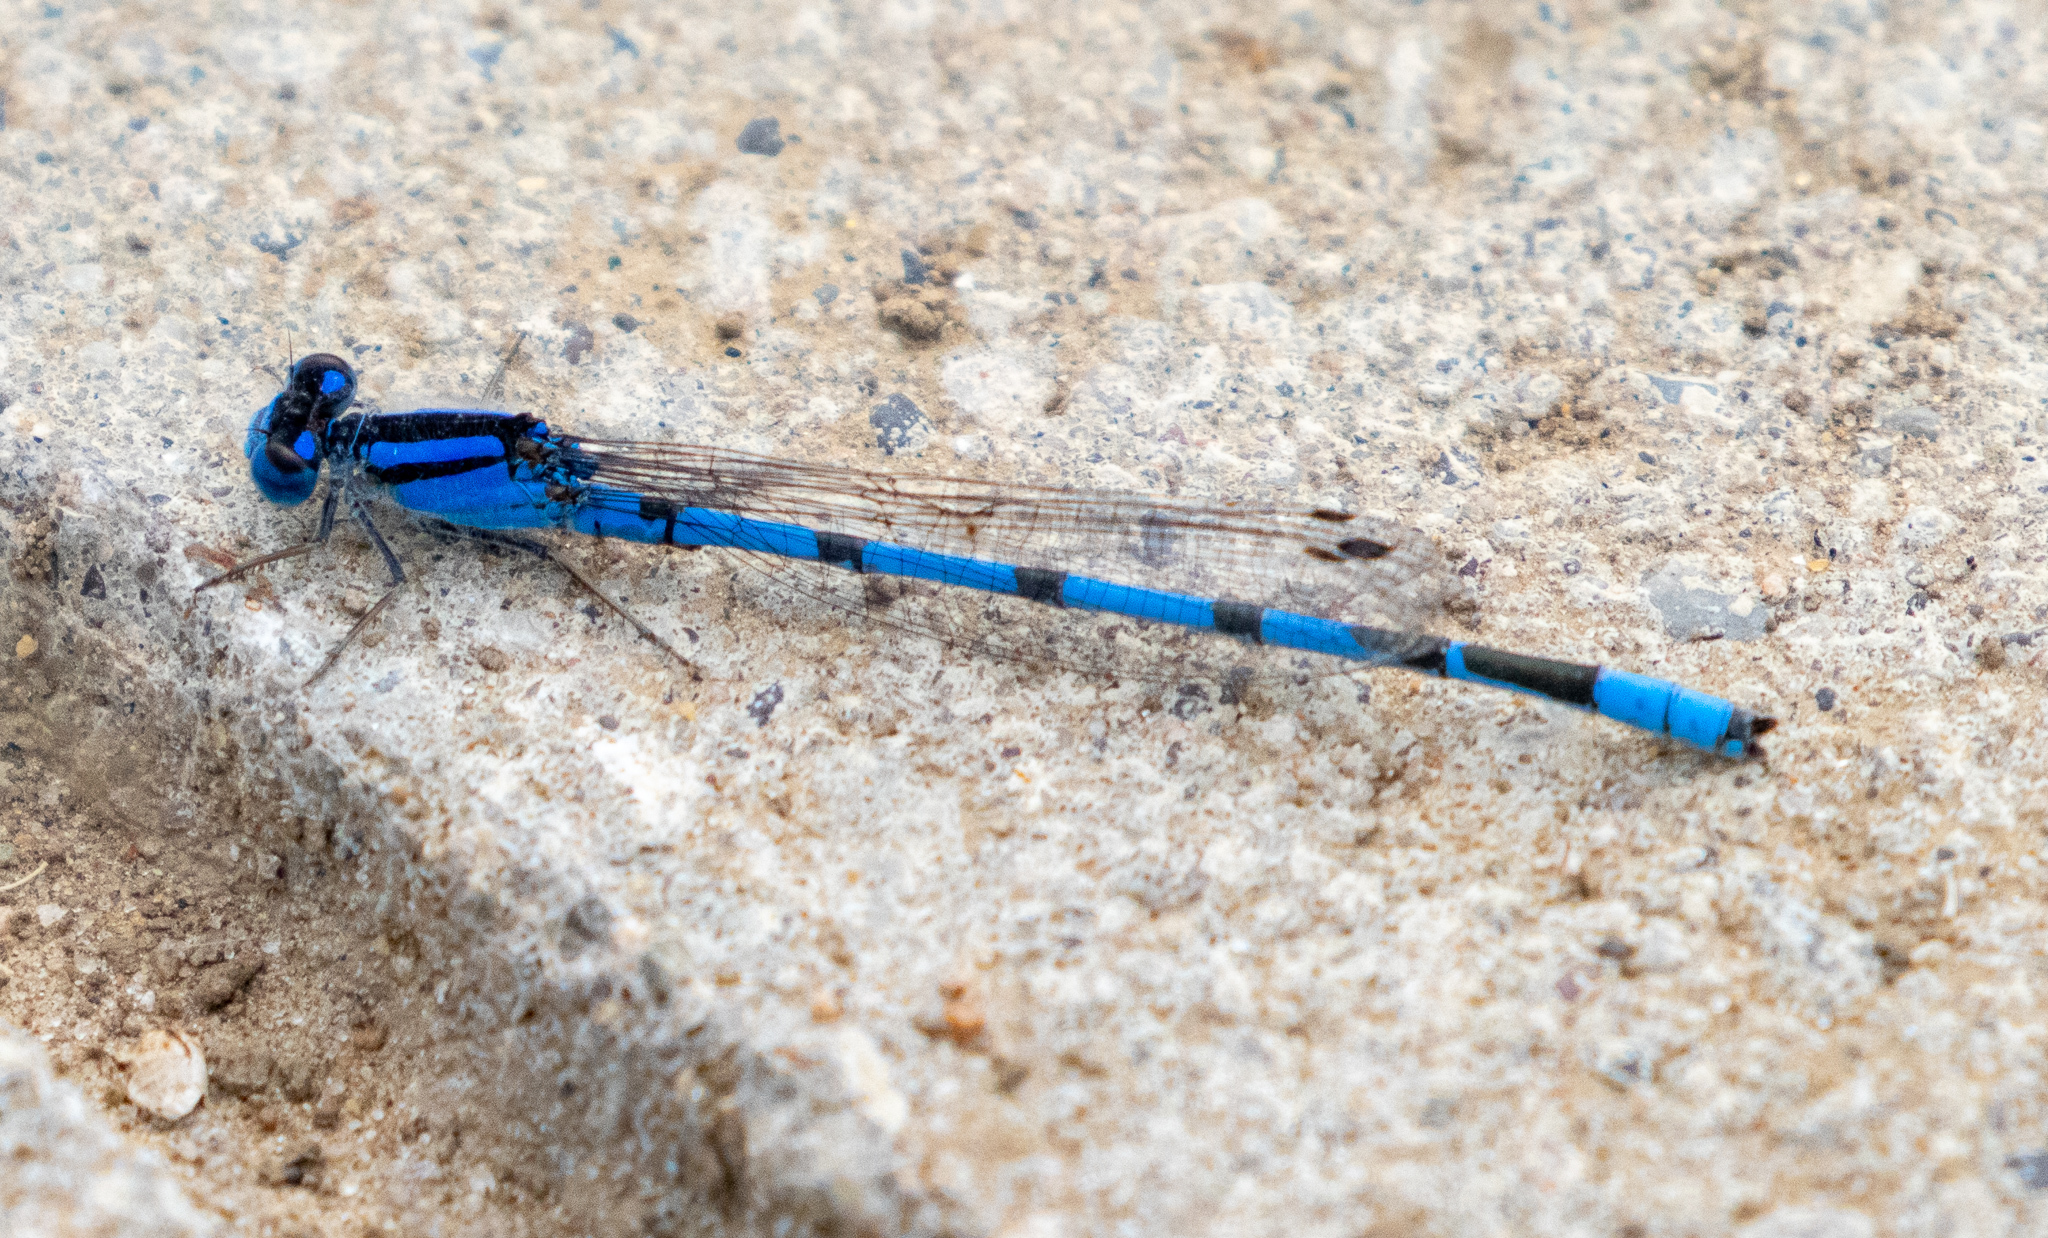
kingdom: Animalia
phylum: Arthropoda
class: Insecta
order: Odonata
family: Coenagrionidae
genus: Enallagma
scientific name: Enallagma civile
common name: Damselfly
